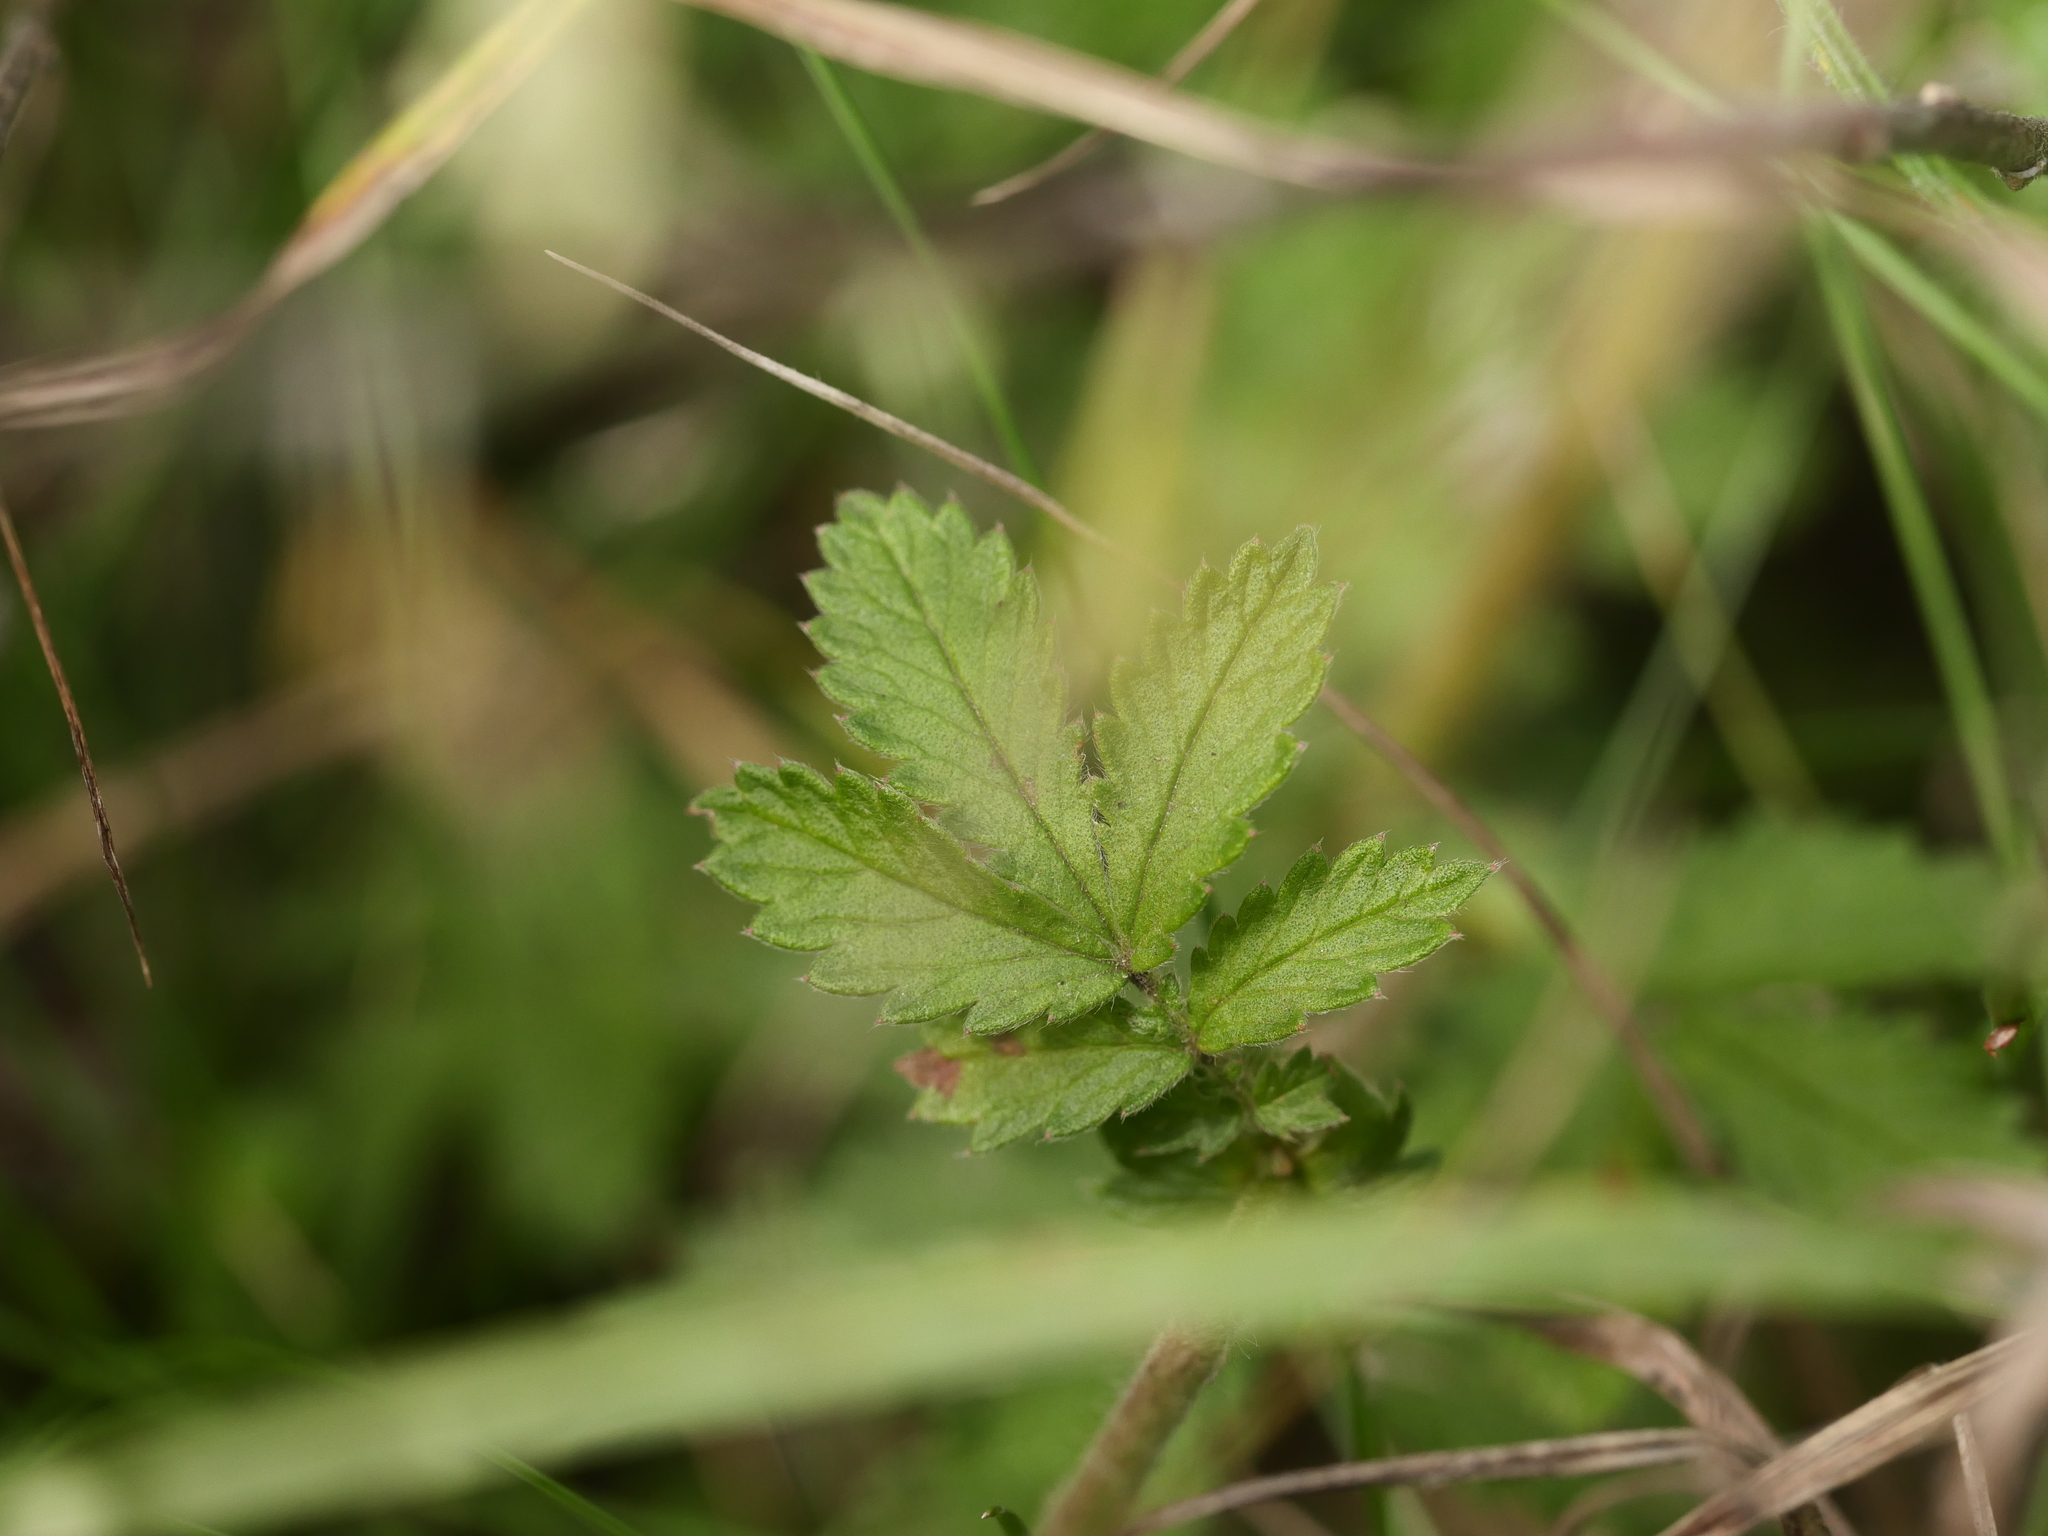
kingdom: Plantae
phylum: Tracheophyta
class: Magnoliopsida
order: Rosales
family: Rosaceae
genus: Agrimonia
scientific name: Agrimonia eupatoria
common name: Agrimony
